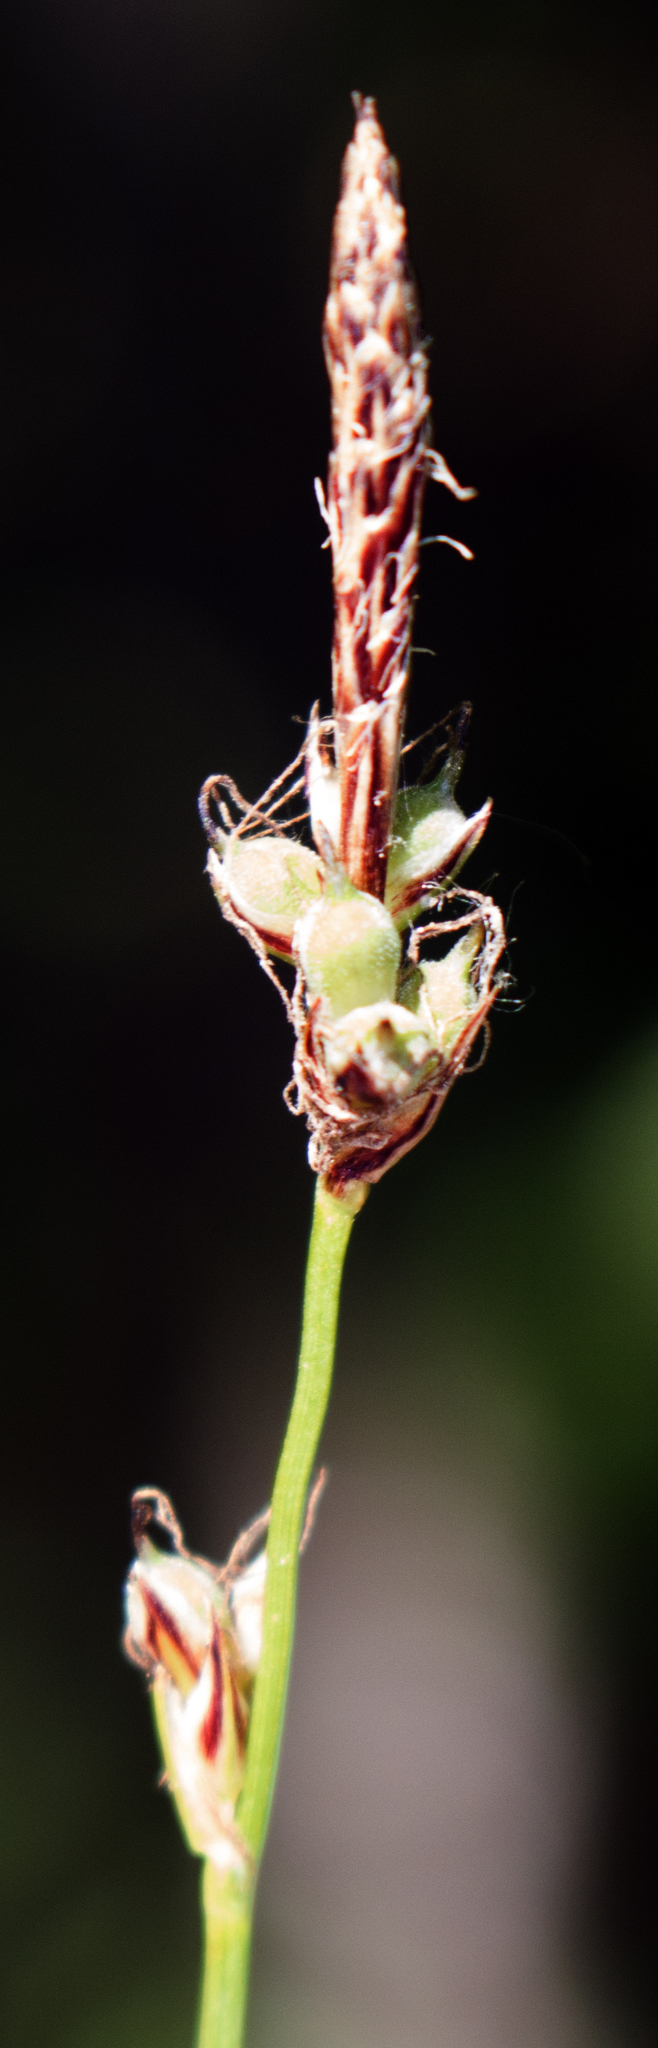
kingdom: Plantae
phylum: Tracheophyta
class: Liliopsida
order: Poales
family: Cyperaceae
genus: Carex
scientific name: Carex pensylvanica
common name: Common oak sedge
